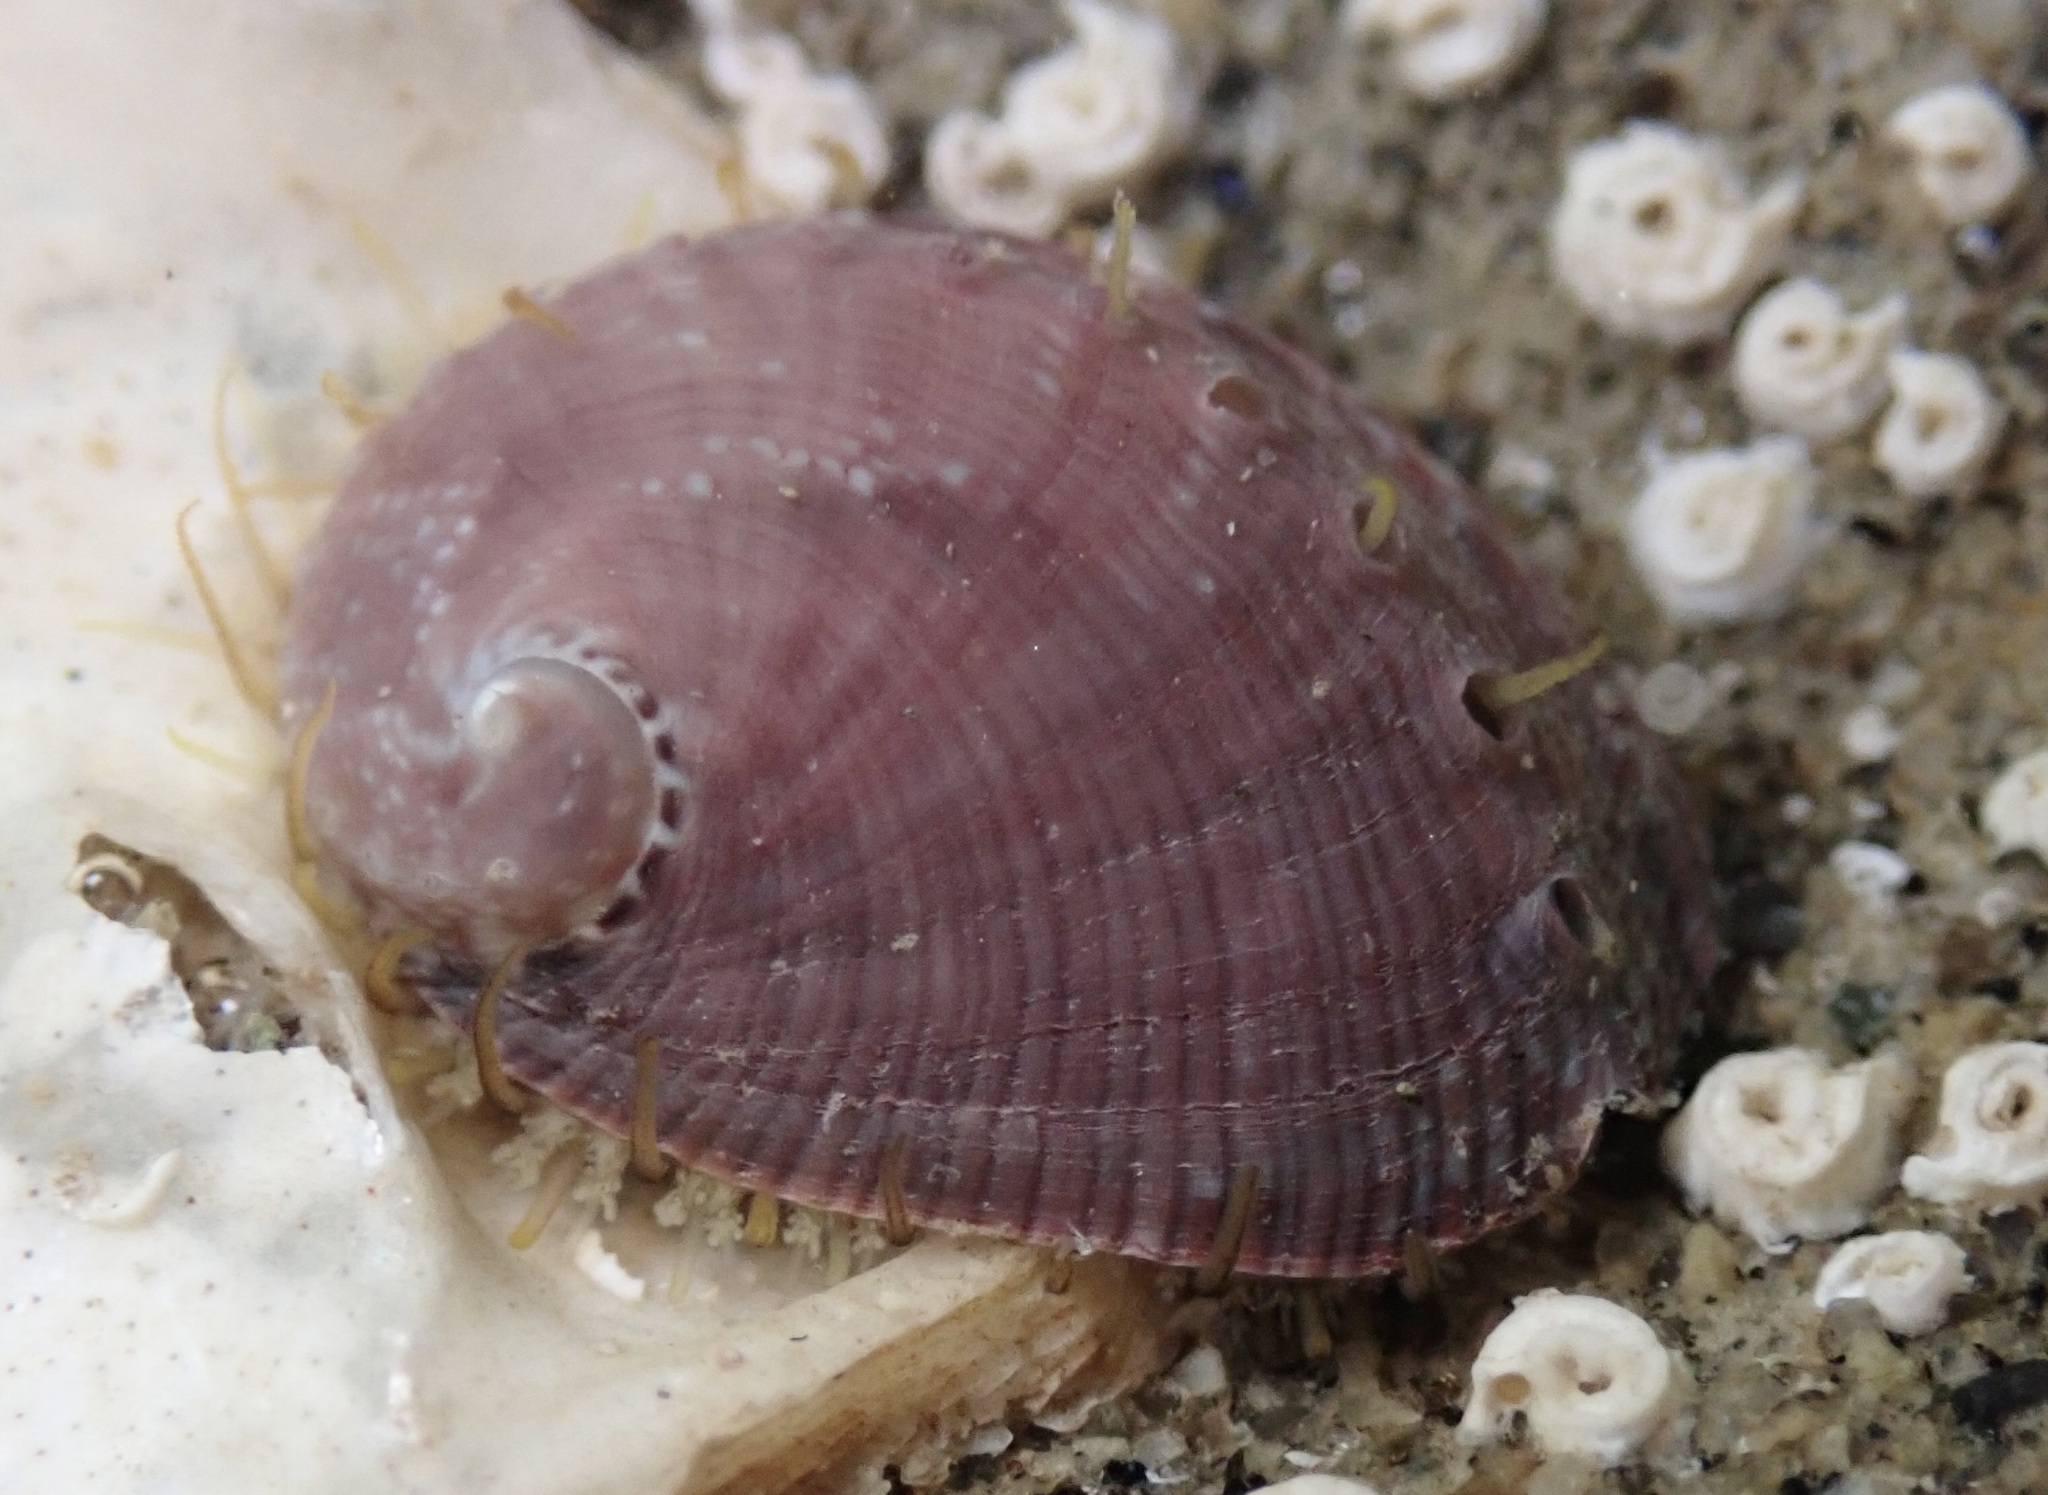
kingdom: Animalia
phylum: Mollusca
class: Gastropoda
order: Lepetellida
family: Haliotidae
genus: Haliotis
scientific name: Haliotis fulgens
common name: Green abalone
